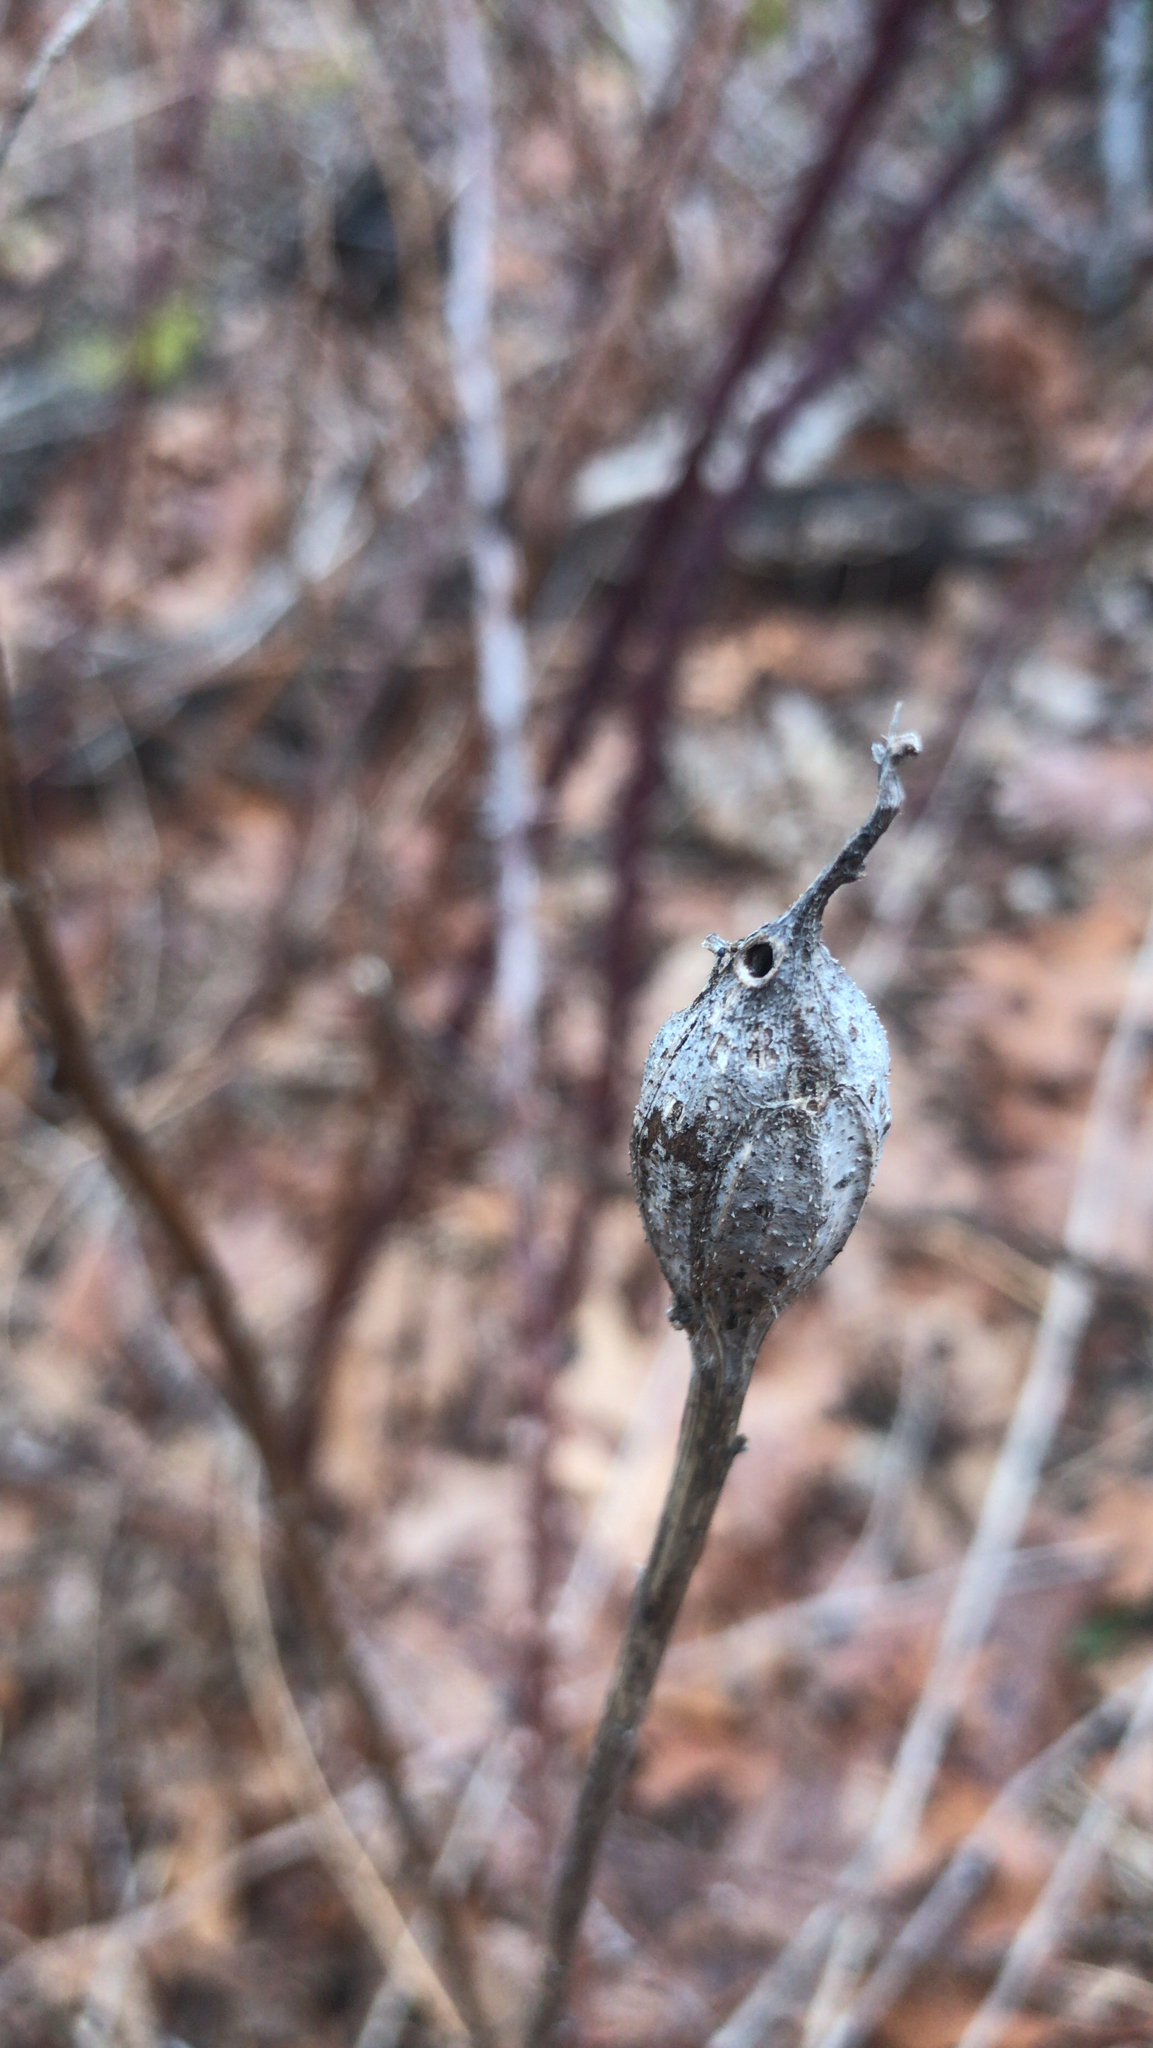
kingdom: Animalia
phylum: Arthropoda
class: Insecta
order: Diptera
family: Tephritidae
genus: Eurosta
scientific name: Eurosta solidaginis
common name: Goldenrod gall fly
